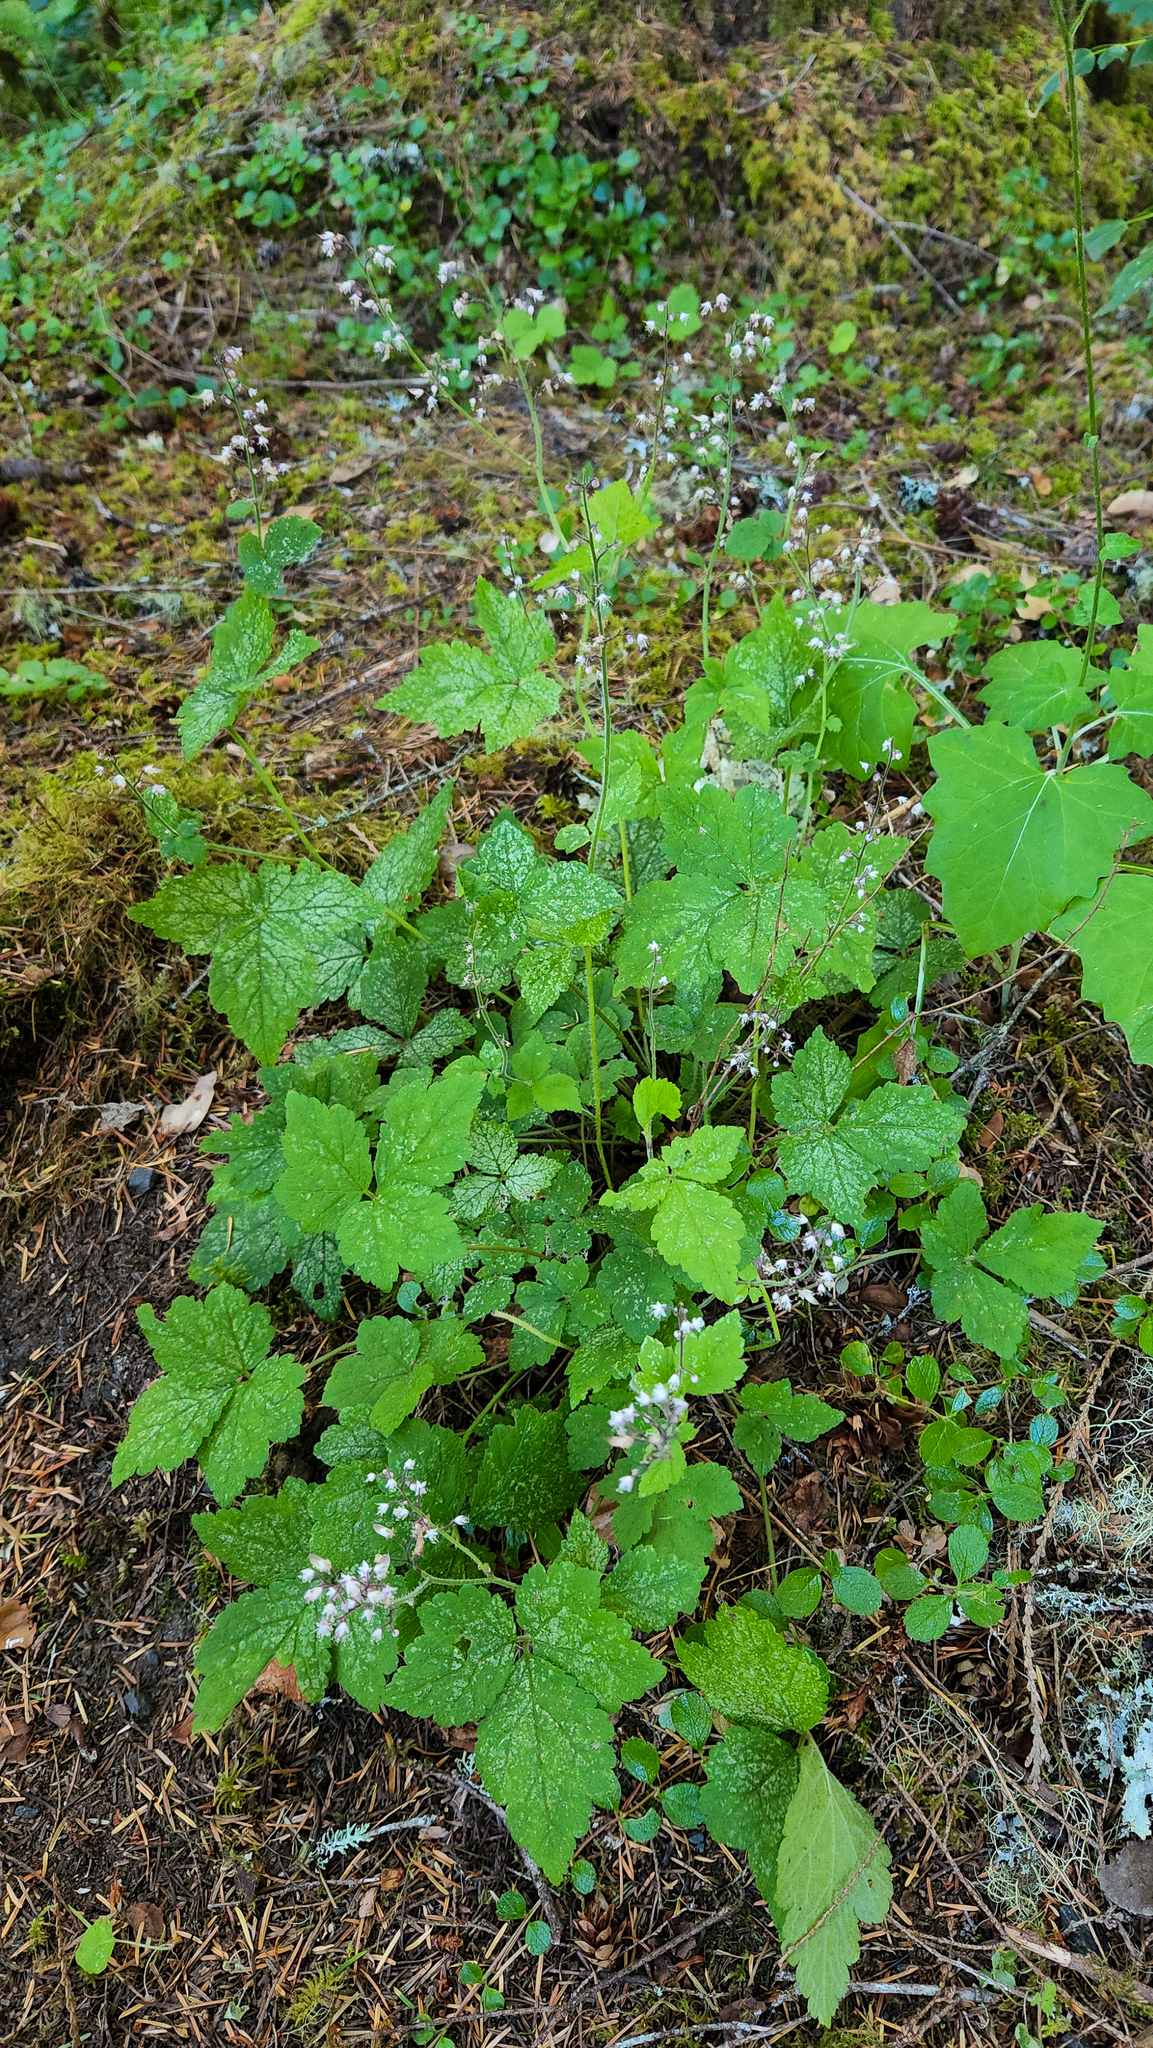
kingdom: Plantae
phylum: Tracheophyta
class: Magnoliopsida
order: Saxifragales
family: Saxifragaceae
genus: Tiarella
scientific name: Tiarella trifoliata
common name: Sugar-scoop
